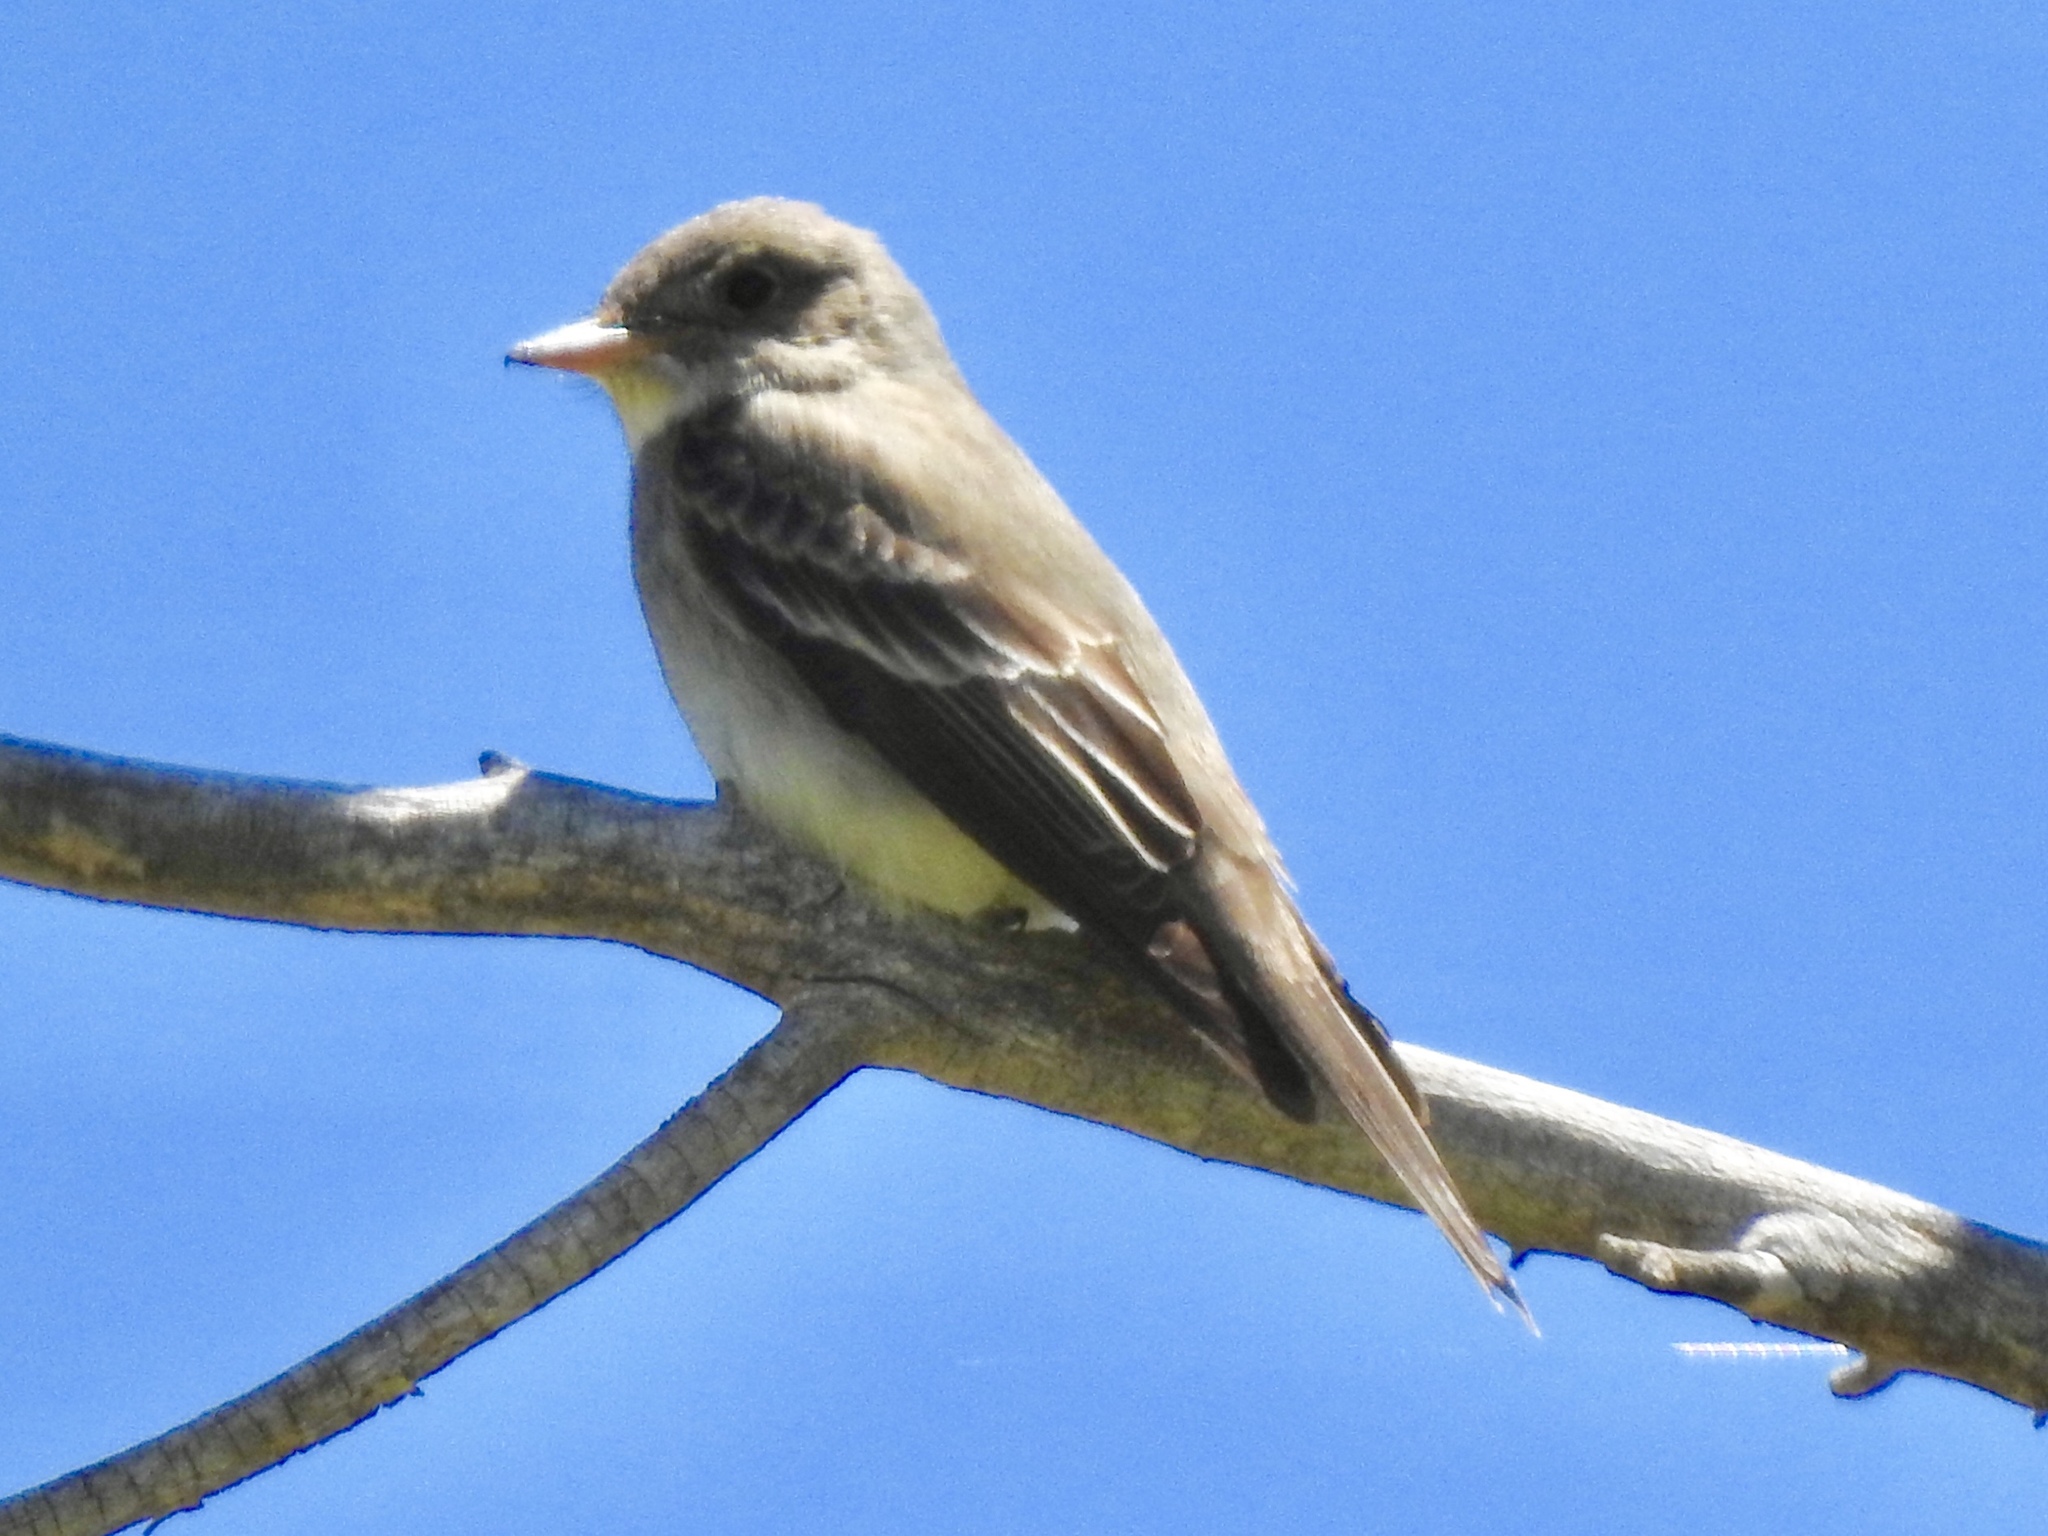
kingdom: Animalia
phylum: Chordata
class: Aves
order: Passeriformes
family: Tyrannidae
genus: Contopus
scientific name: Contopus sordidulus
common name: Western wood-pewee
